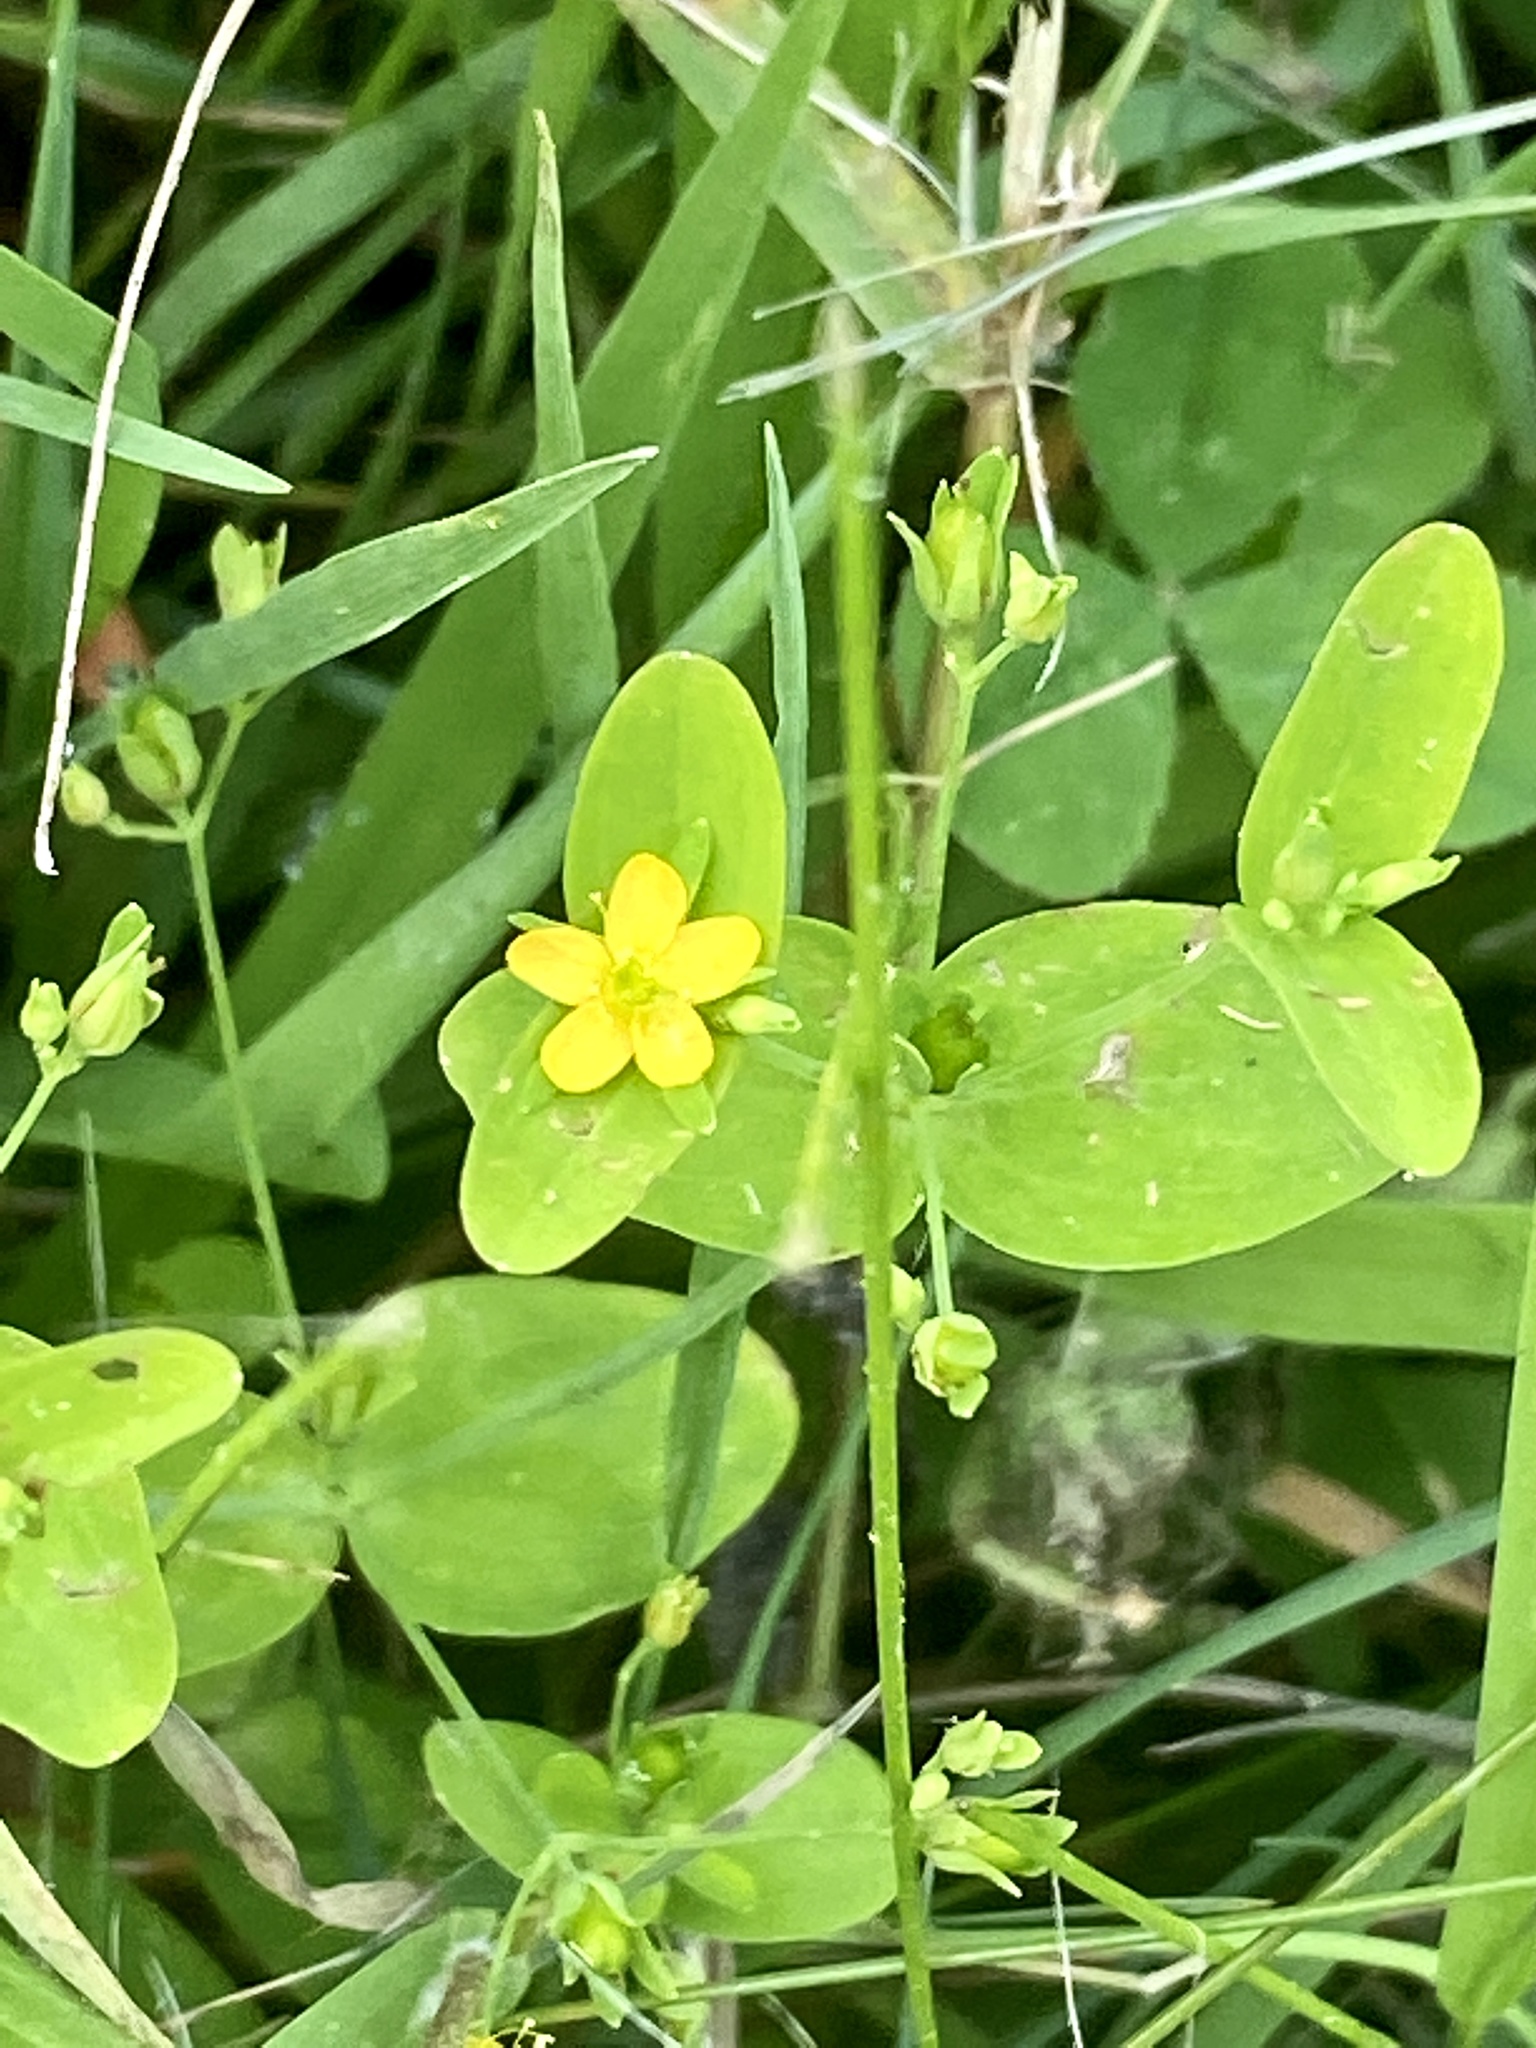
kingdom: Plantae
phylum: Tracheophyta
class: Magnoliopsida
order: Malpighiales
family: Hypericaceae
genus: Hypericum
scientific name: Hypericum mutilum
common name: Dwarf st. john's-wort
